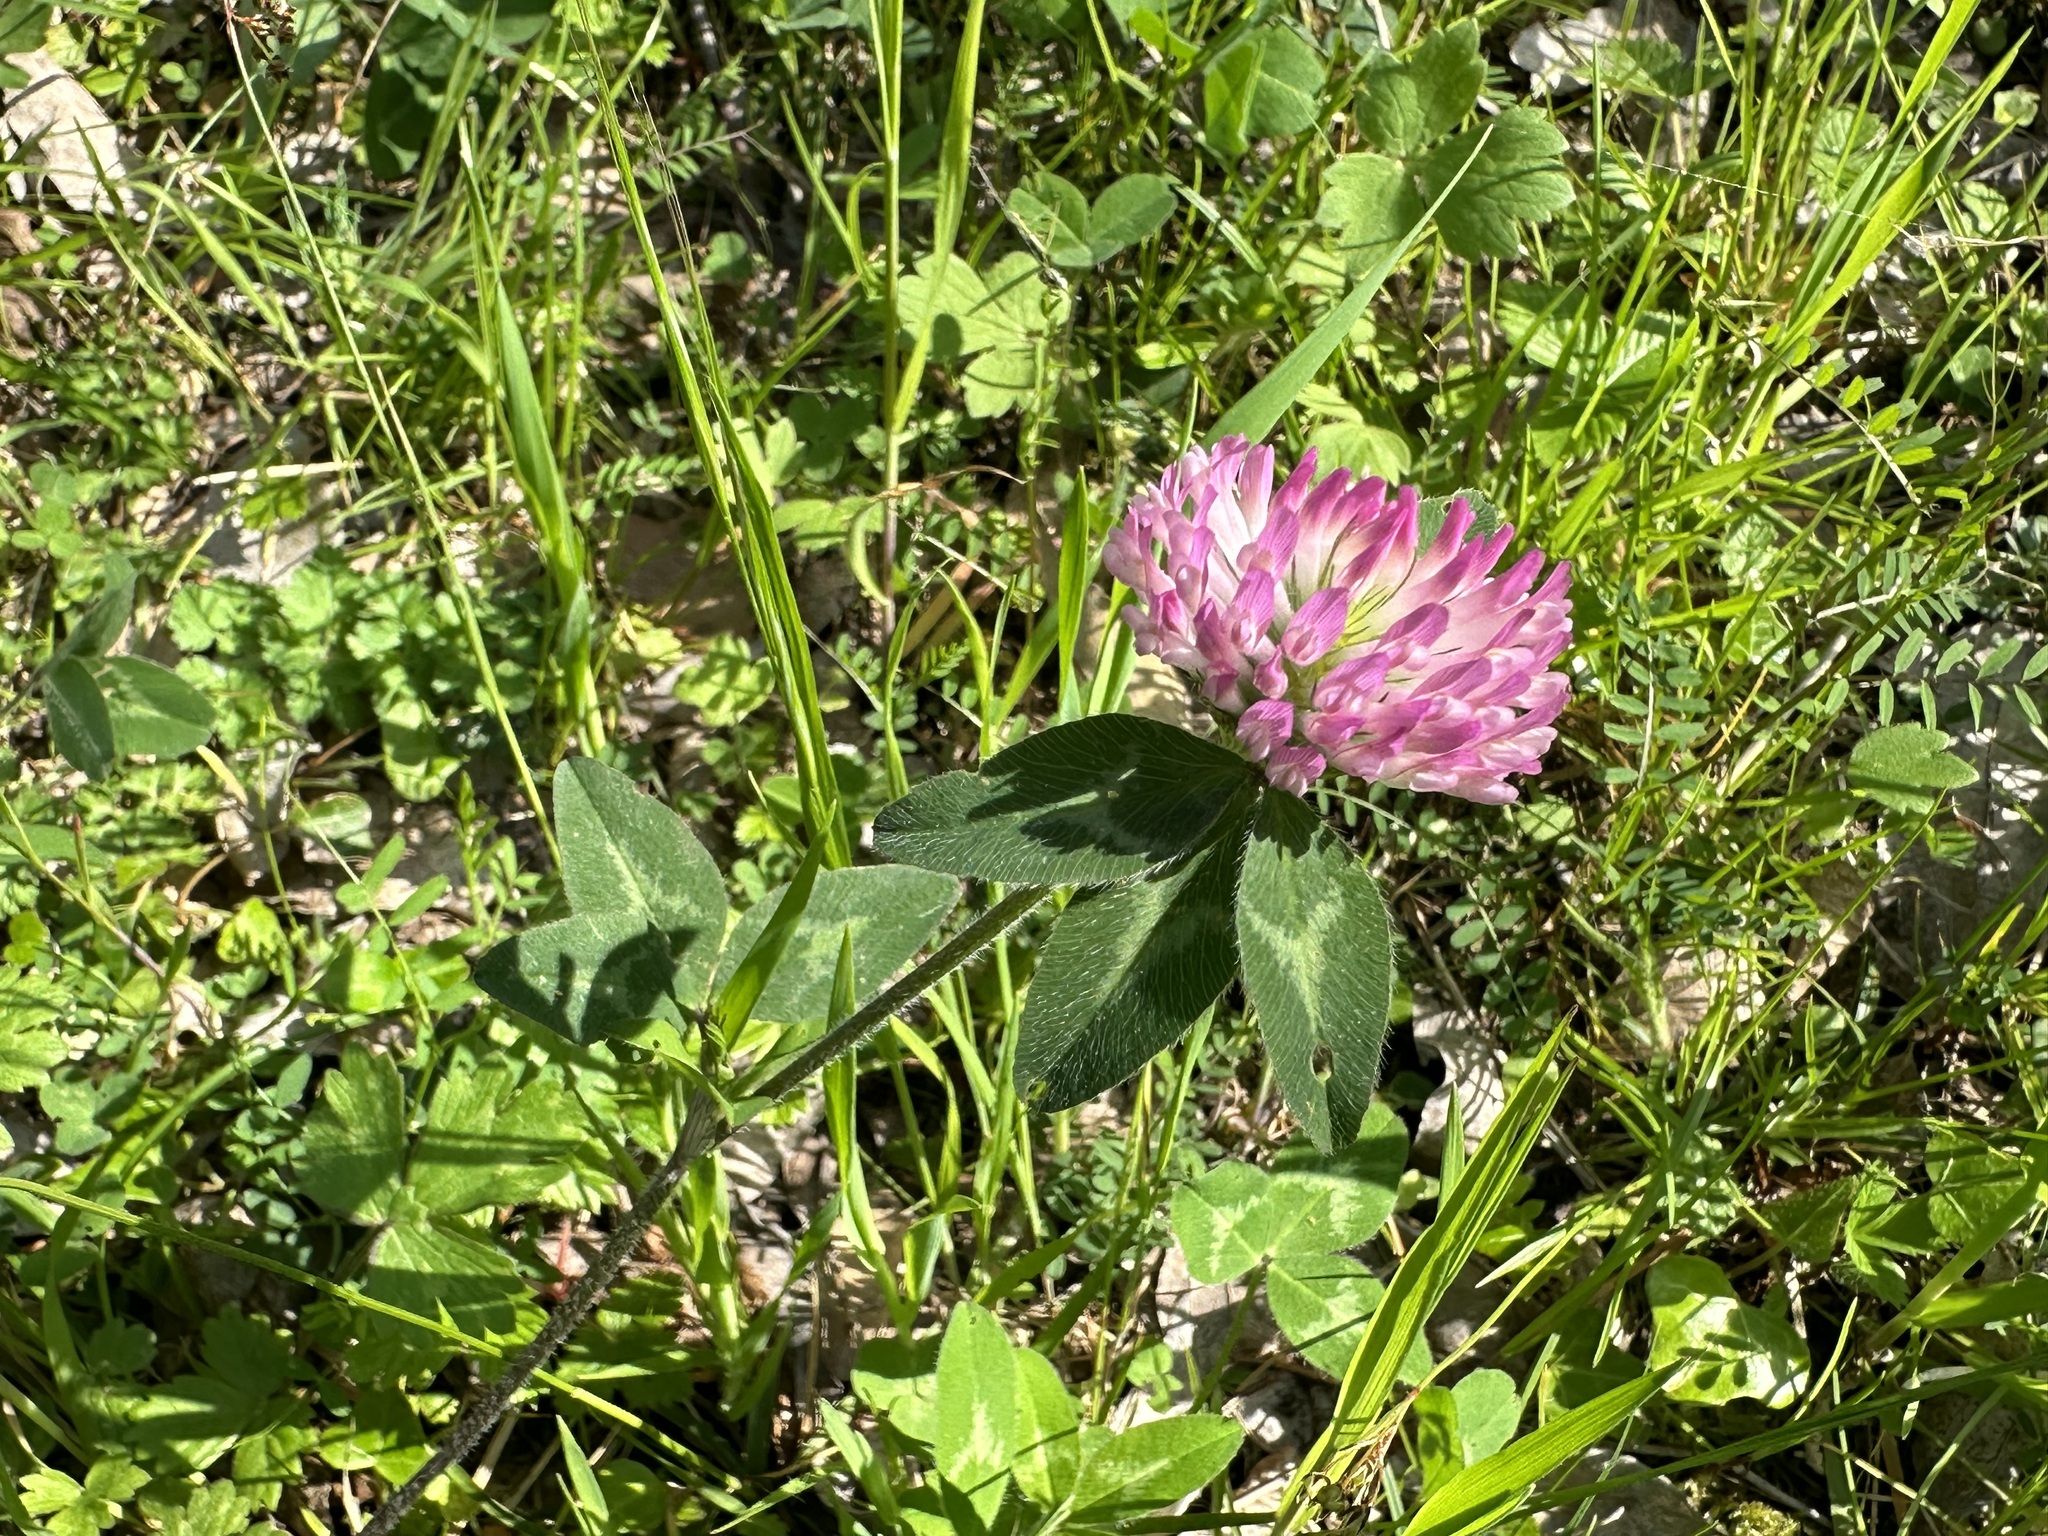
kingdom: Plantae
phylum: Tracheophyta
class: Magnoliopsida
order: Fabales
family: Fabaceae
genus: Trifolium
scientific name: Trifolium pratense
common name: Red clover
